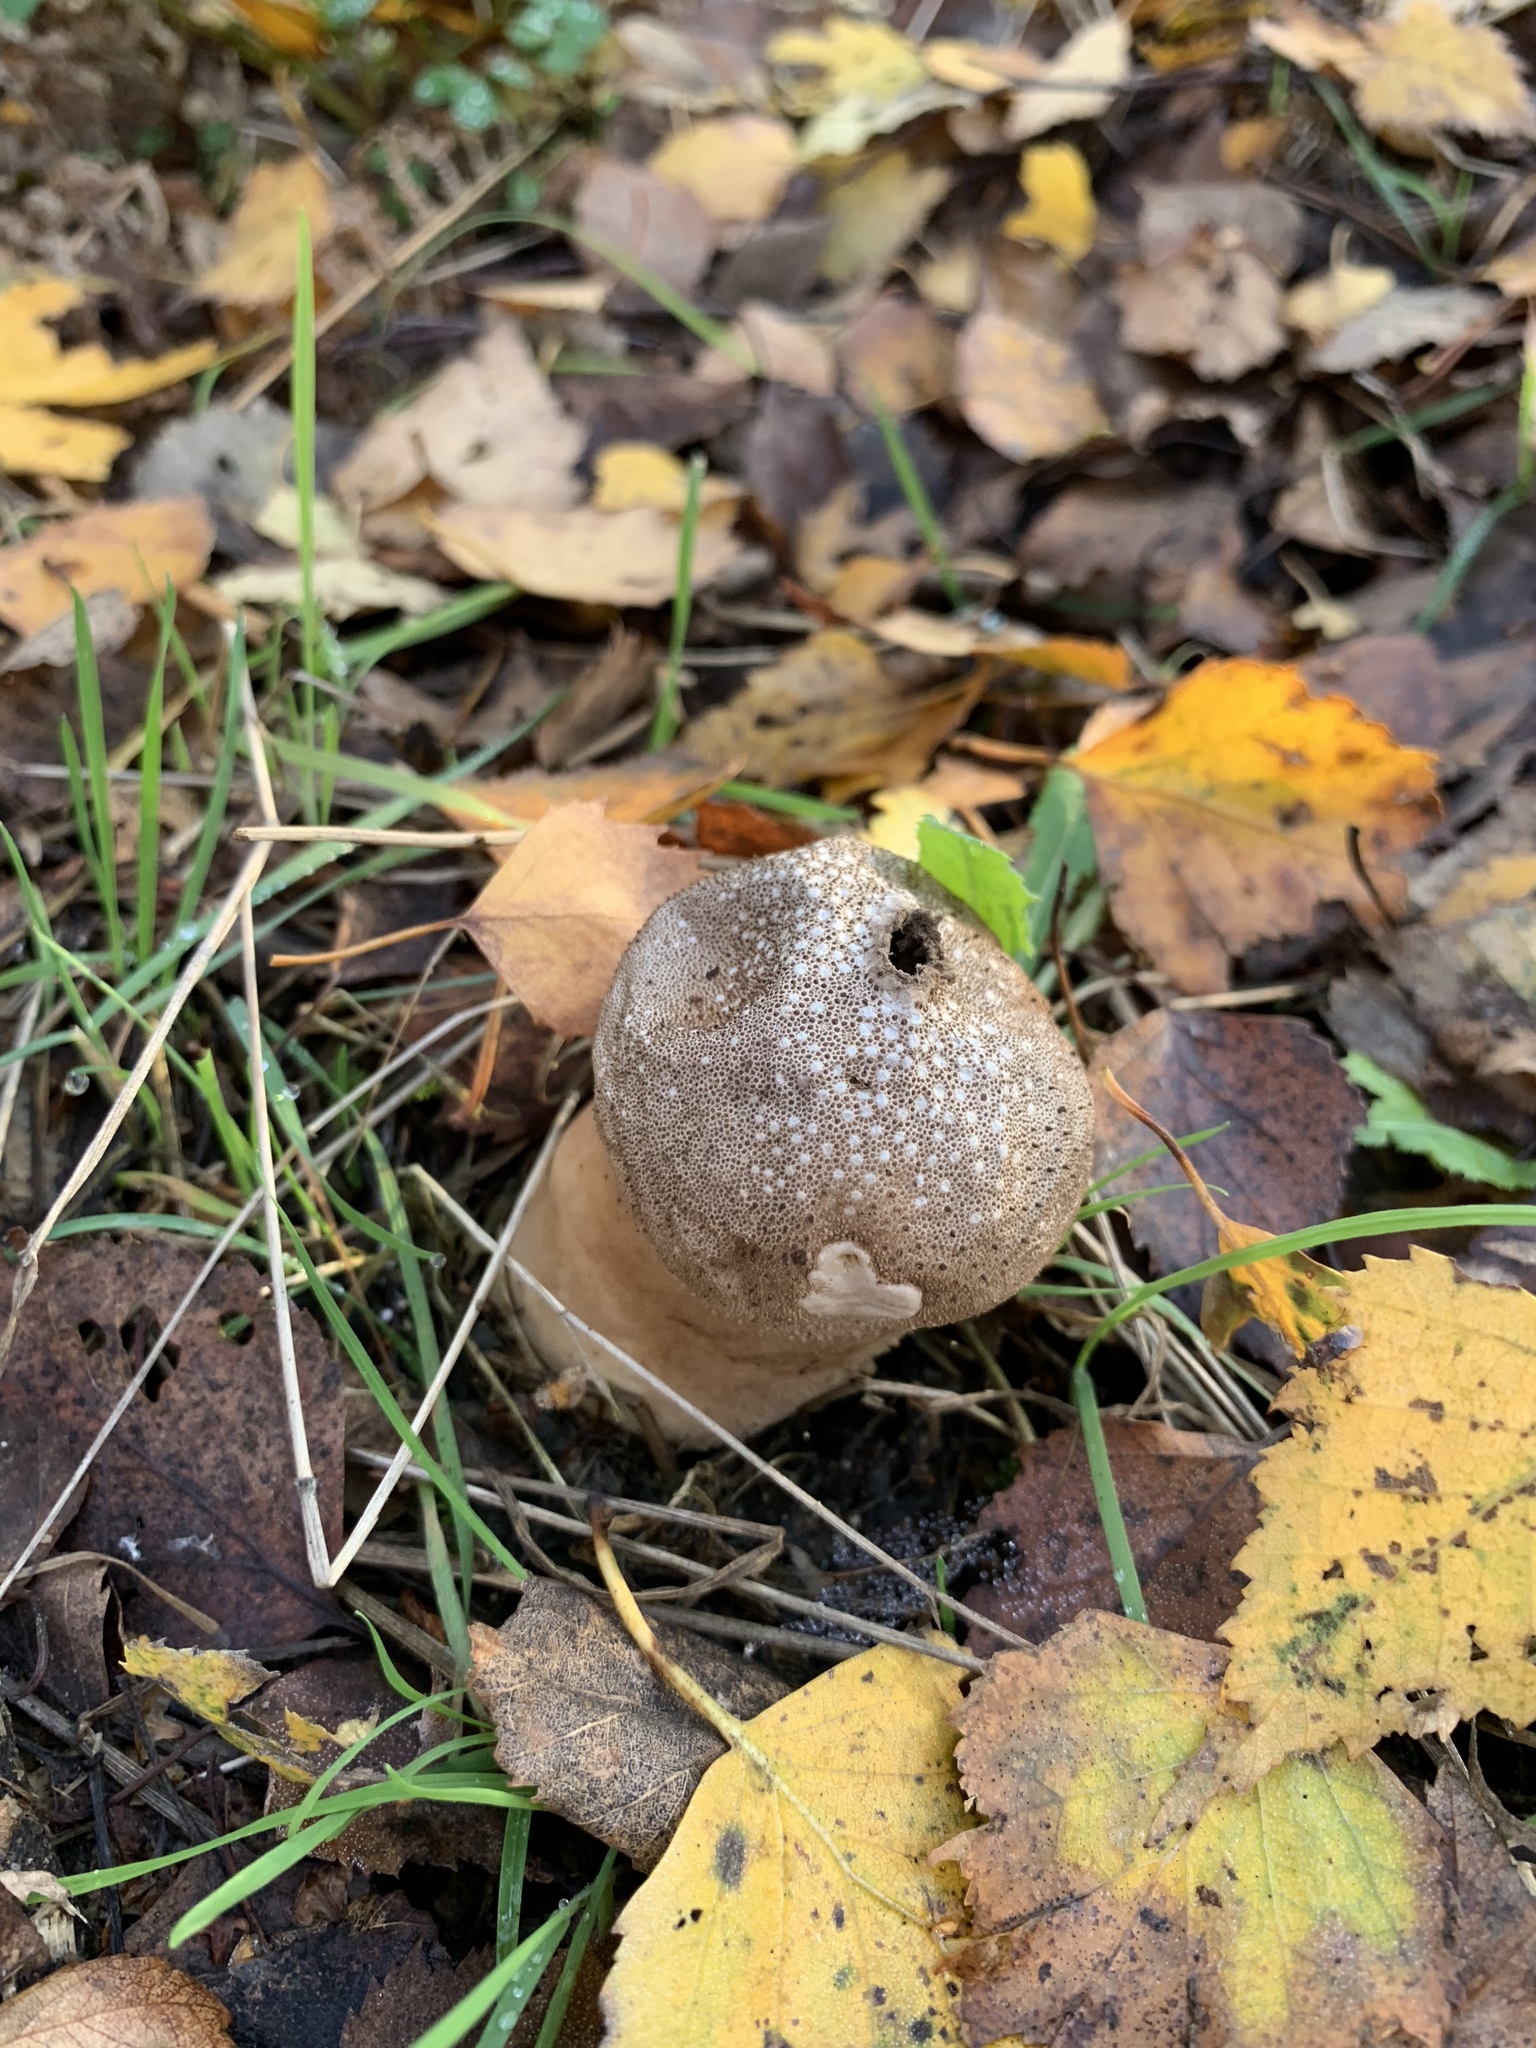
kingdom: Fungi
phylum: Basidiomycota
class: Agaricomycetes
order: Agaricales
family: Lycoperdaceae
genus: Apioperdon
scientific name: Apioperdon pyriforme
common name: Pear-shaped puffball
